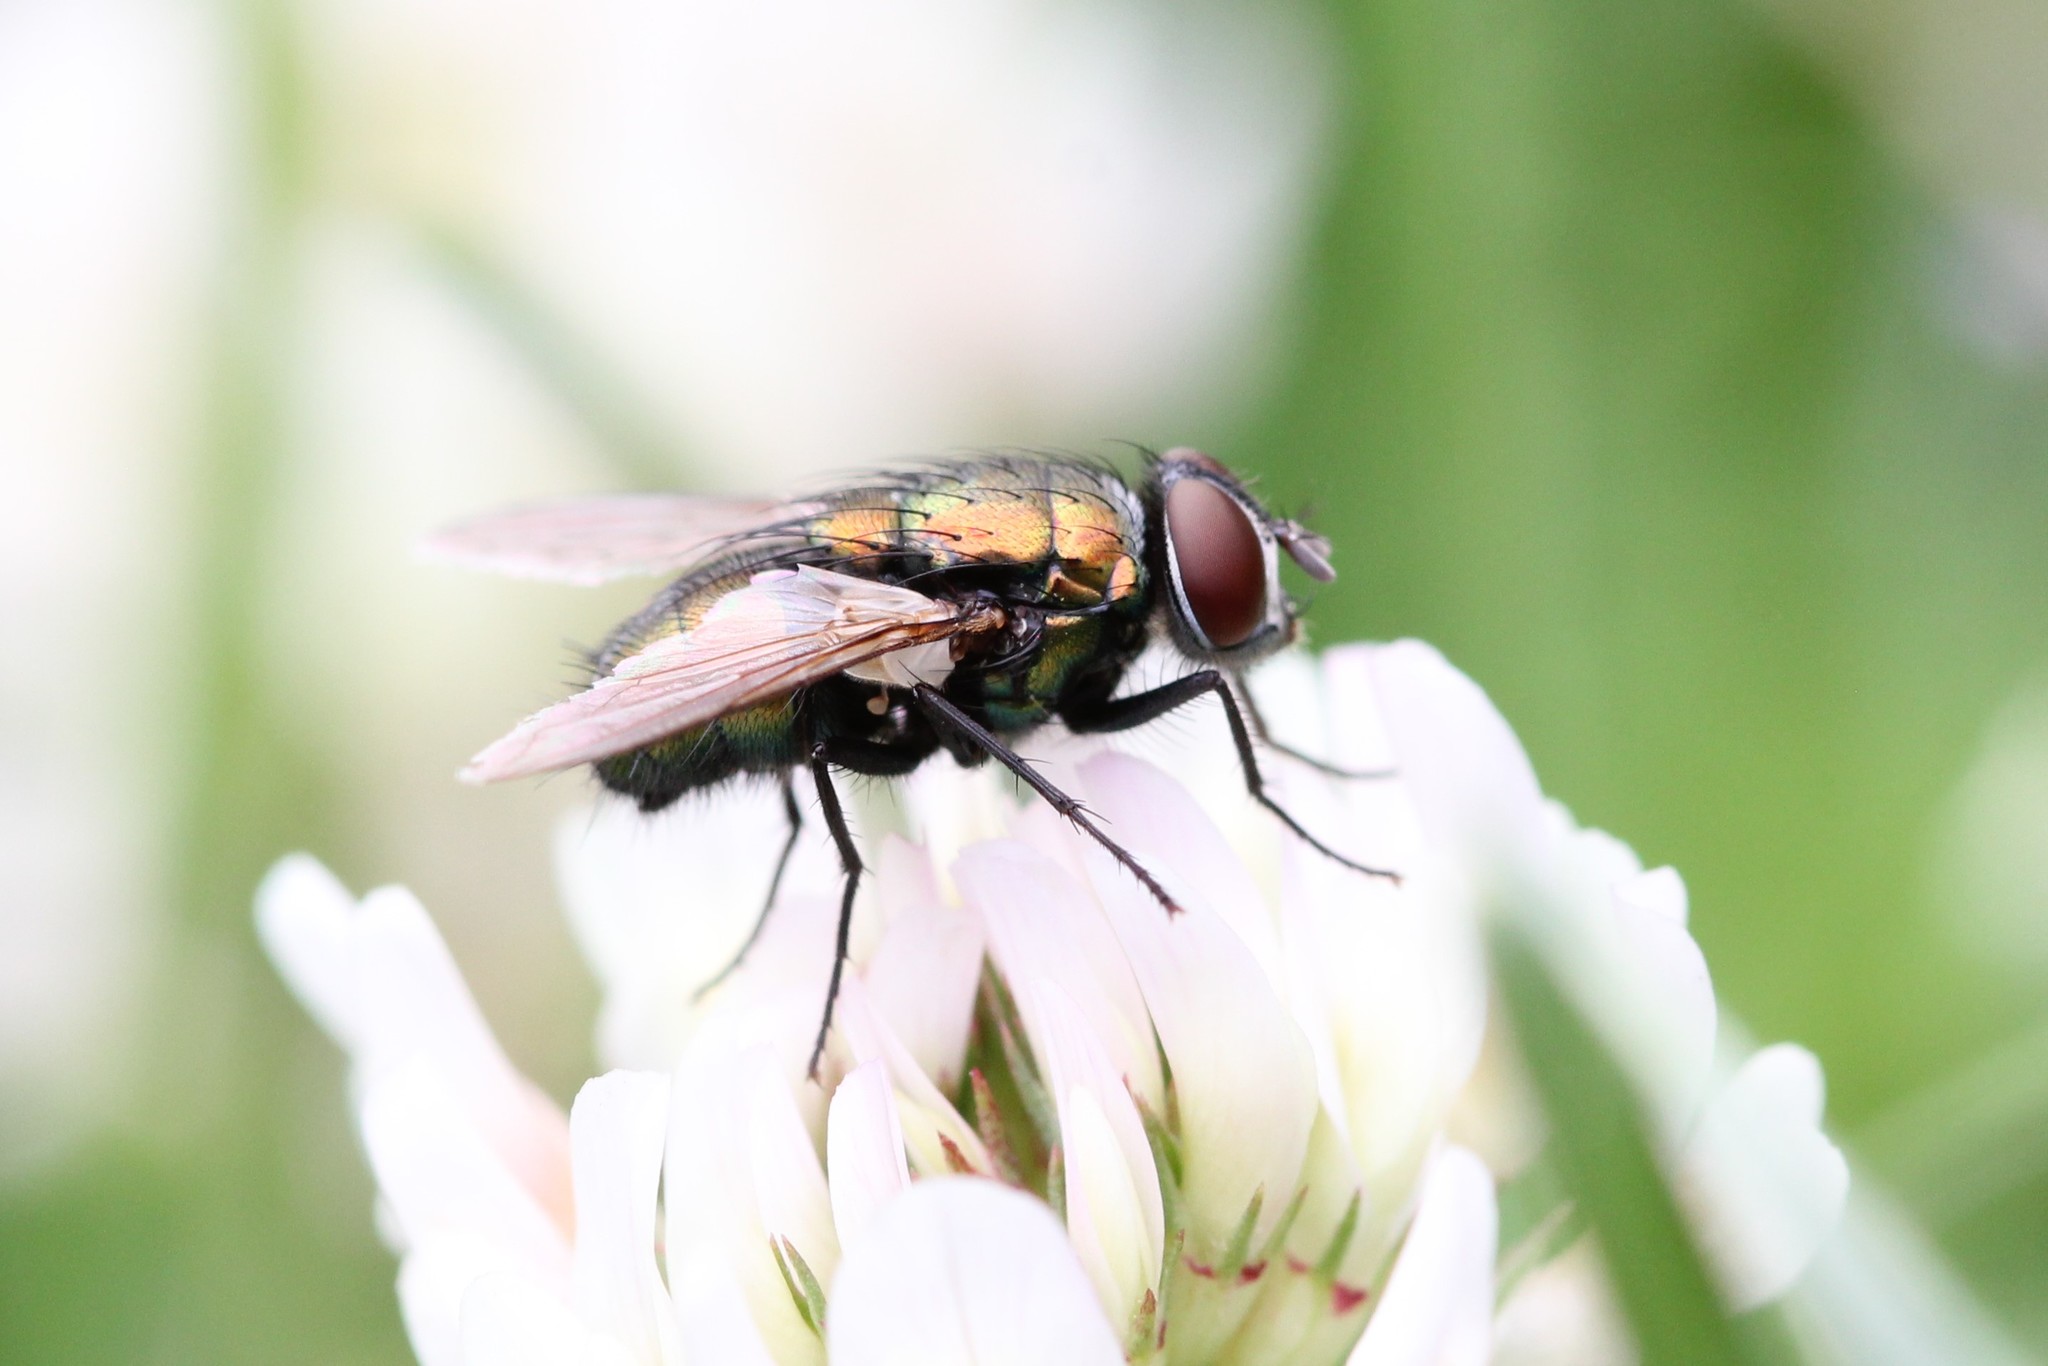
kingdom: Animalia
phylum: Arthropoda
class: Insecta
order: Diptera
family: Calliphoridae
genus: Lucilia
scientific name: Lucilia sericata
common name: Blow fly
